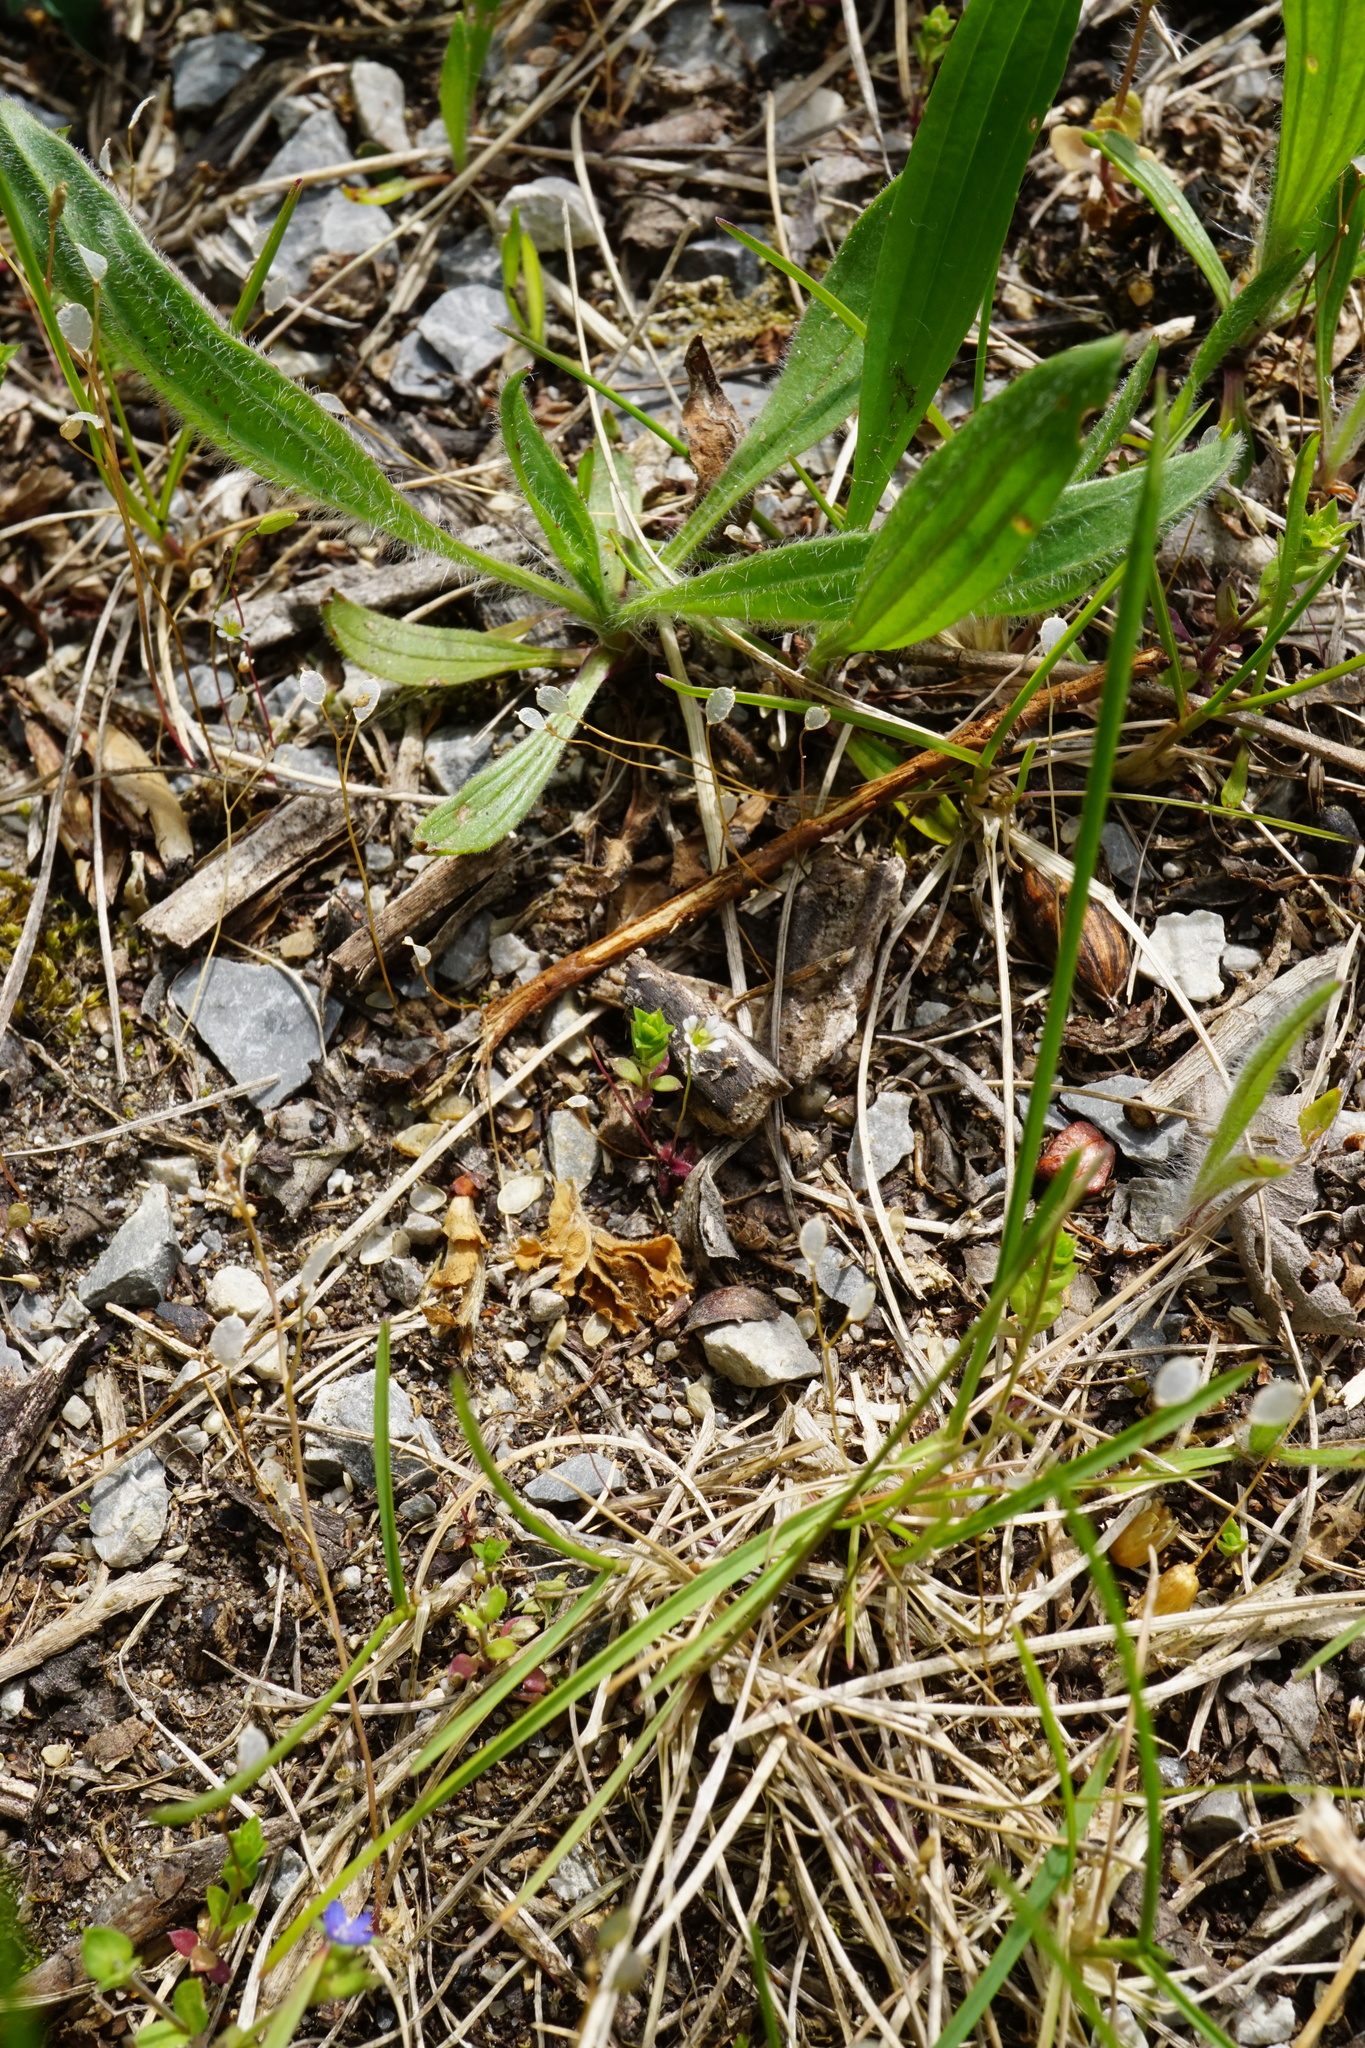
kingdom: Plantae
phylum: Tracheophyta
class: Magnoliopsida
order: Brassicales
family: Brassicaceae
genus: Draba
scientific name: Draba verna
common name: Spring draba
